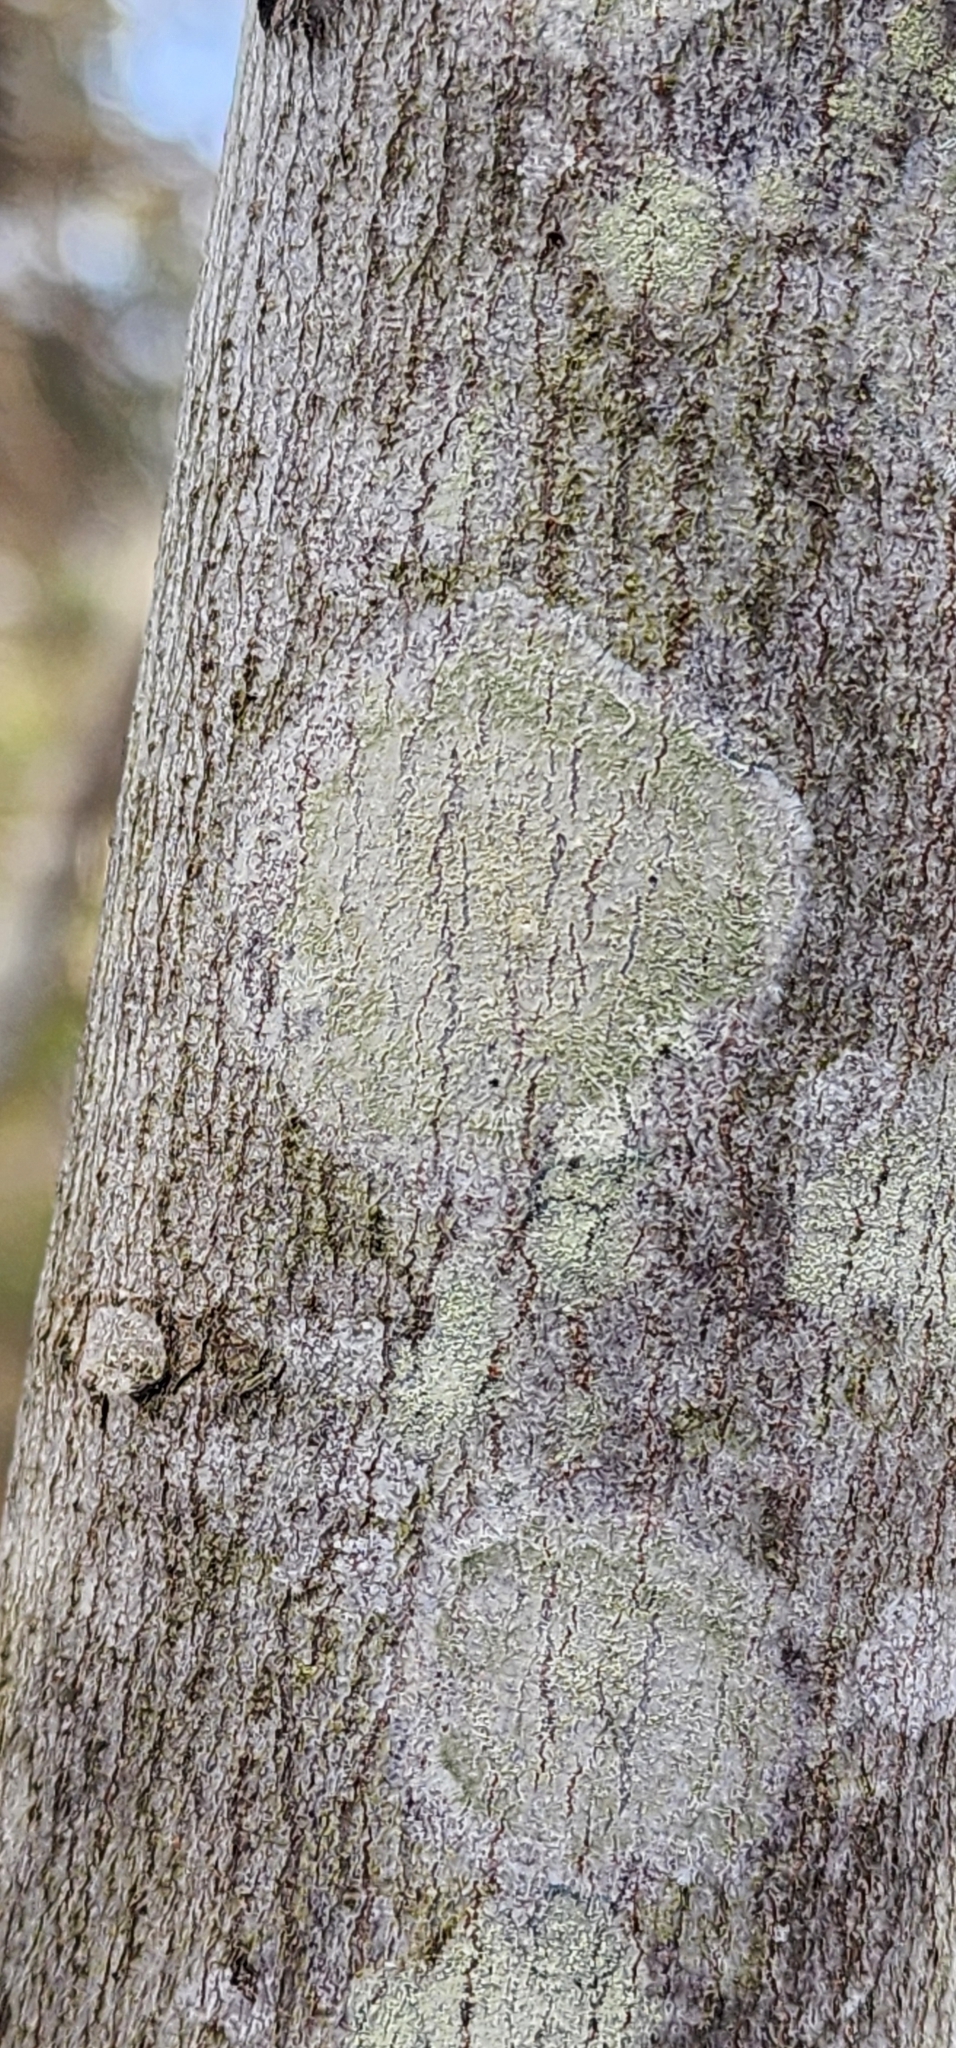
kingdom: Fungi
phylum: Ascomycota
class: Lecanoromycetes
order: Pertusariales
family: Pertusariaceae
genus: Verseghya
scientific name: Verseghya thysanophora
